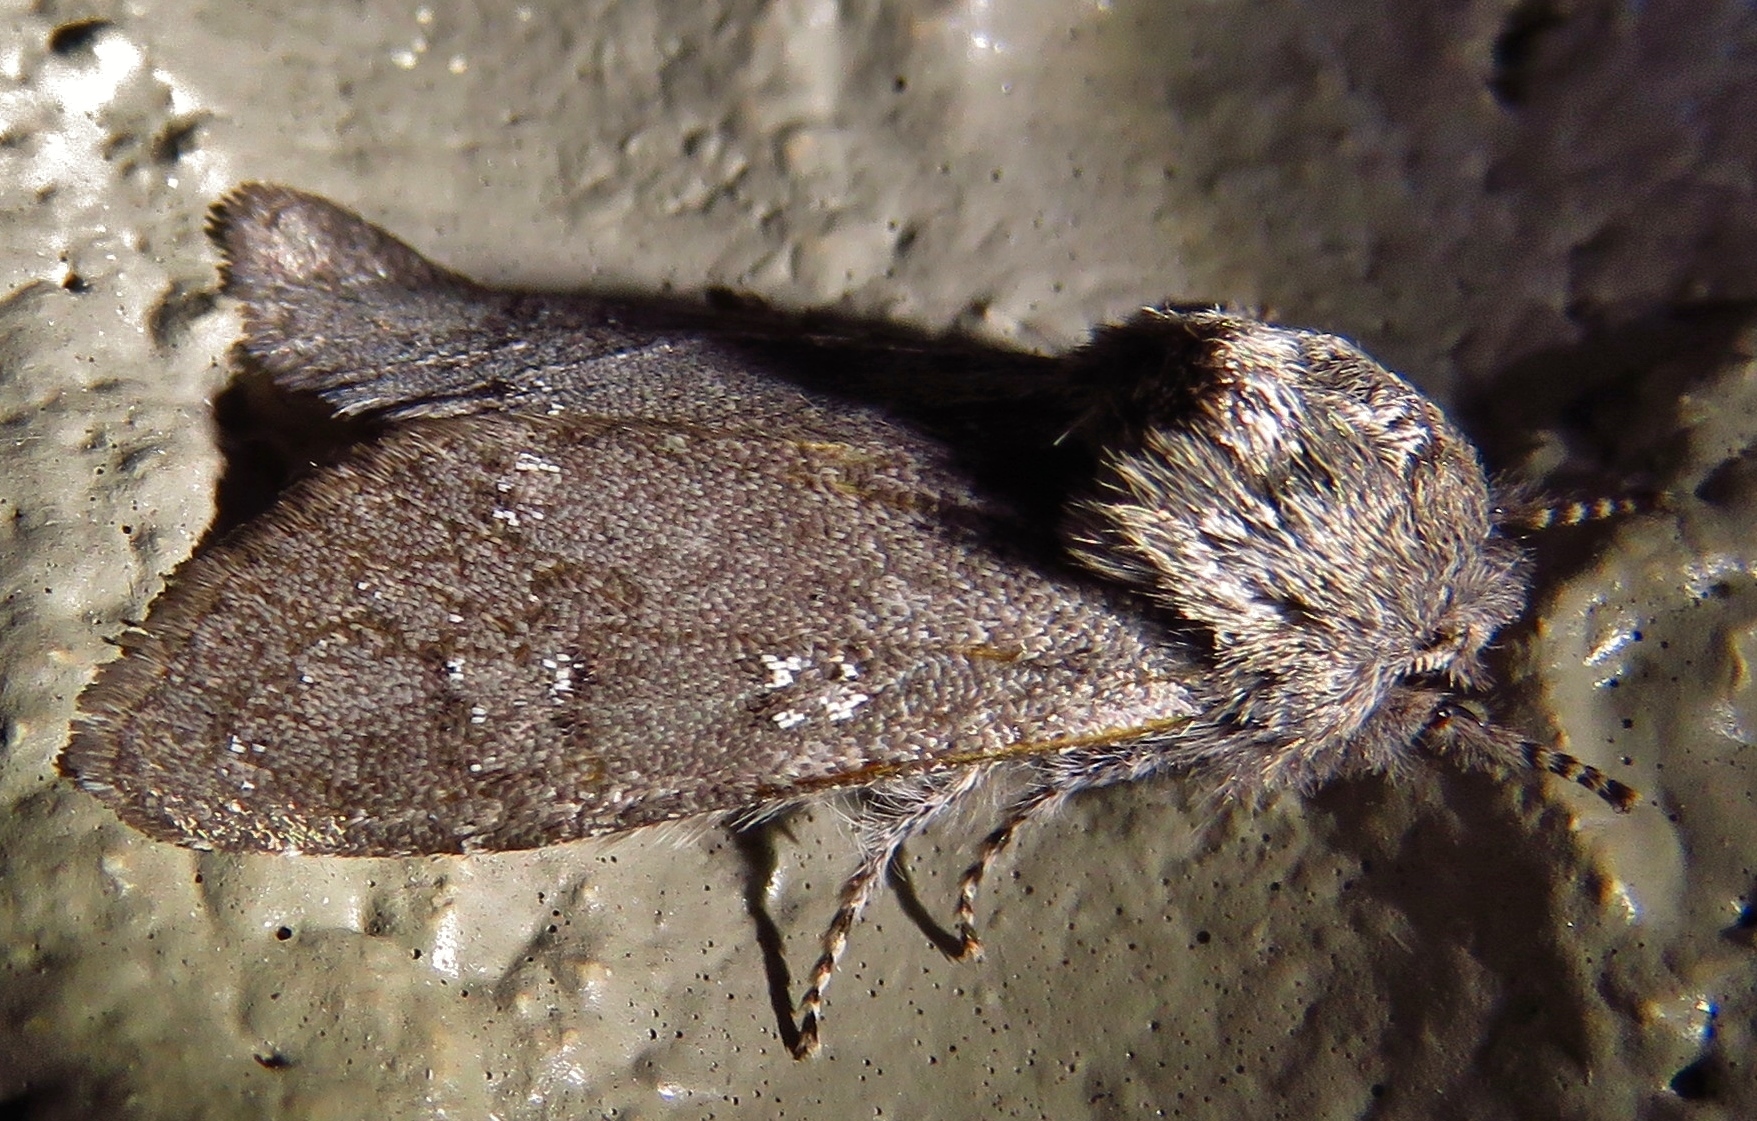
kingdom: Animalia
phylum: Arthropoda
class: Insecta
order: Lepidoptera
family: Noctuidae
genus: Psaphida
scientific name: Psaphida rolandi
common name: Roland's sallow
